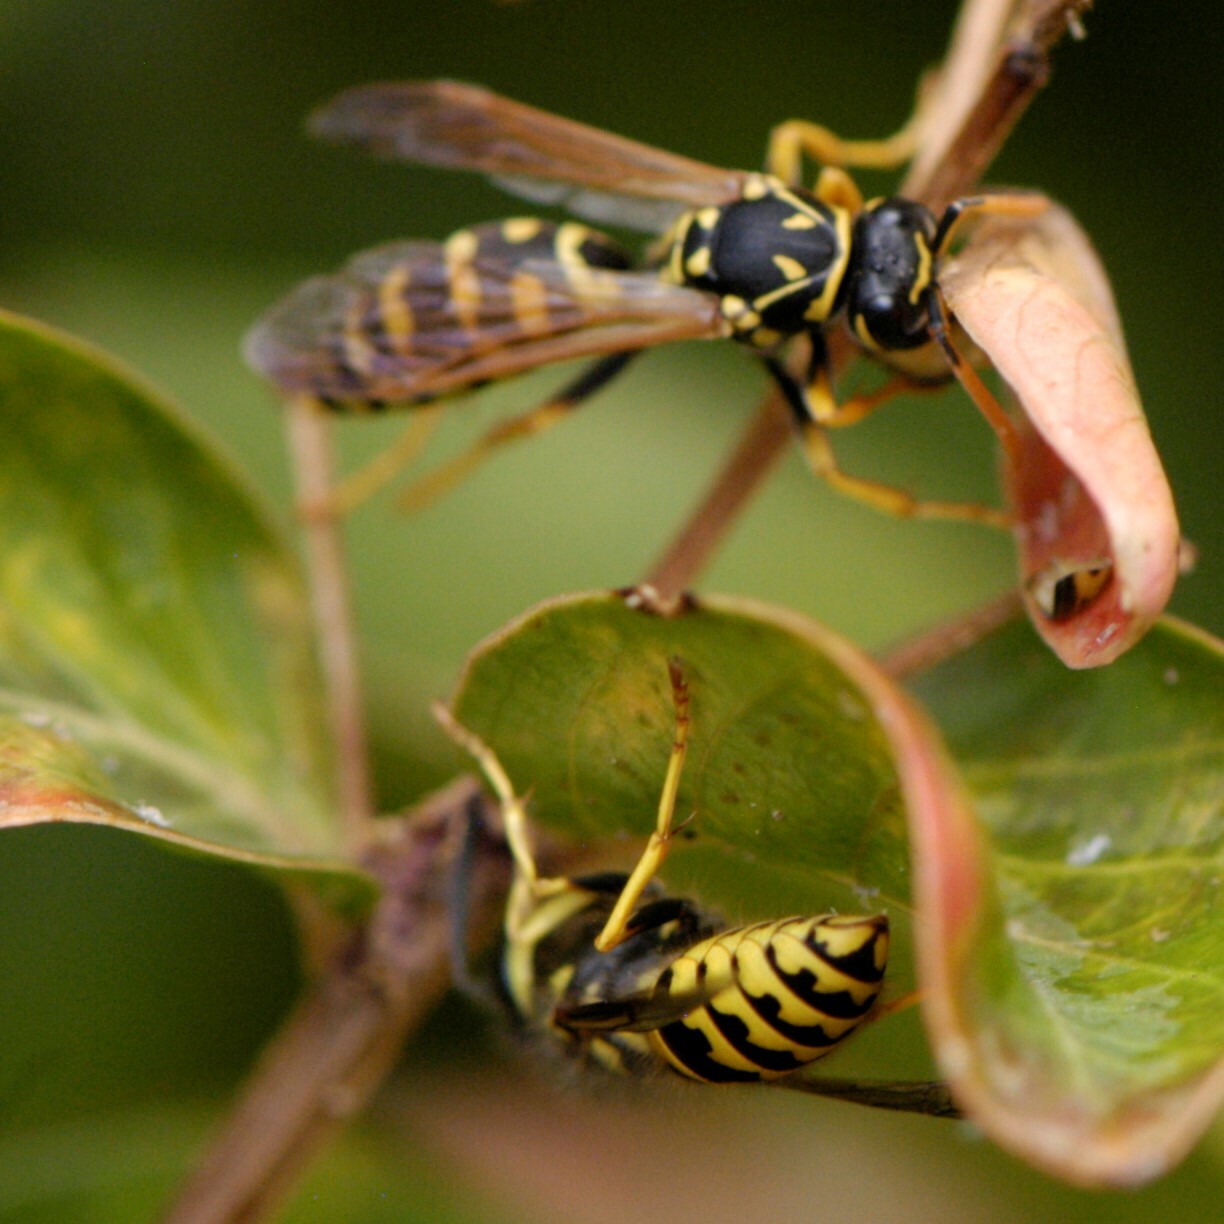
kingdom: Animalia
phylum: Arthropoda
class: Insecta
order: Hymenoptera
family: Vespidae
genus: Vespula
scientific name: Vespula pensylvanica
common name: Western yellowjacket
